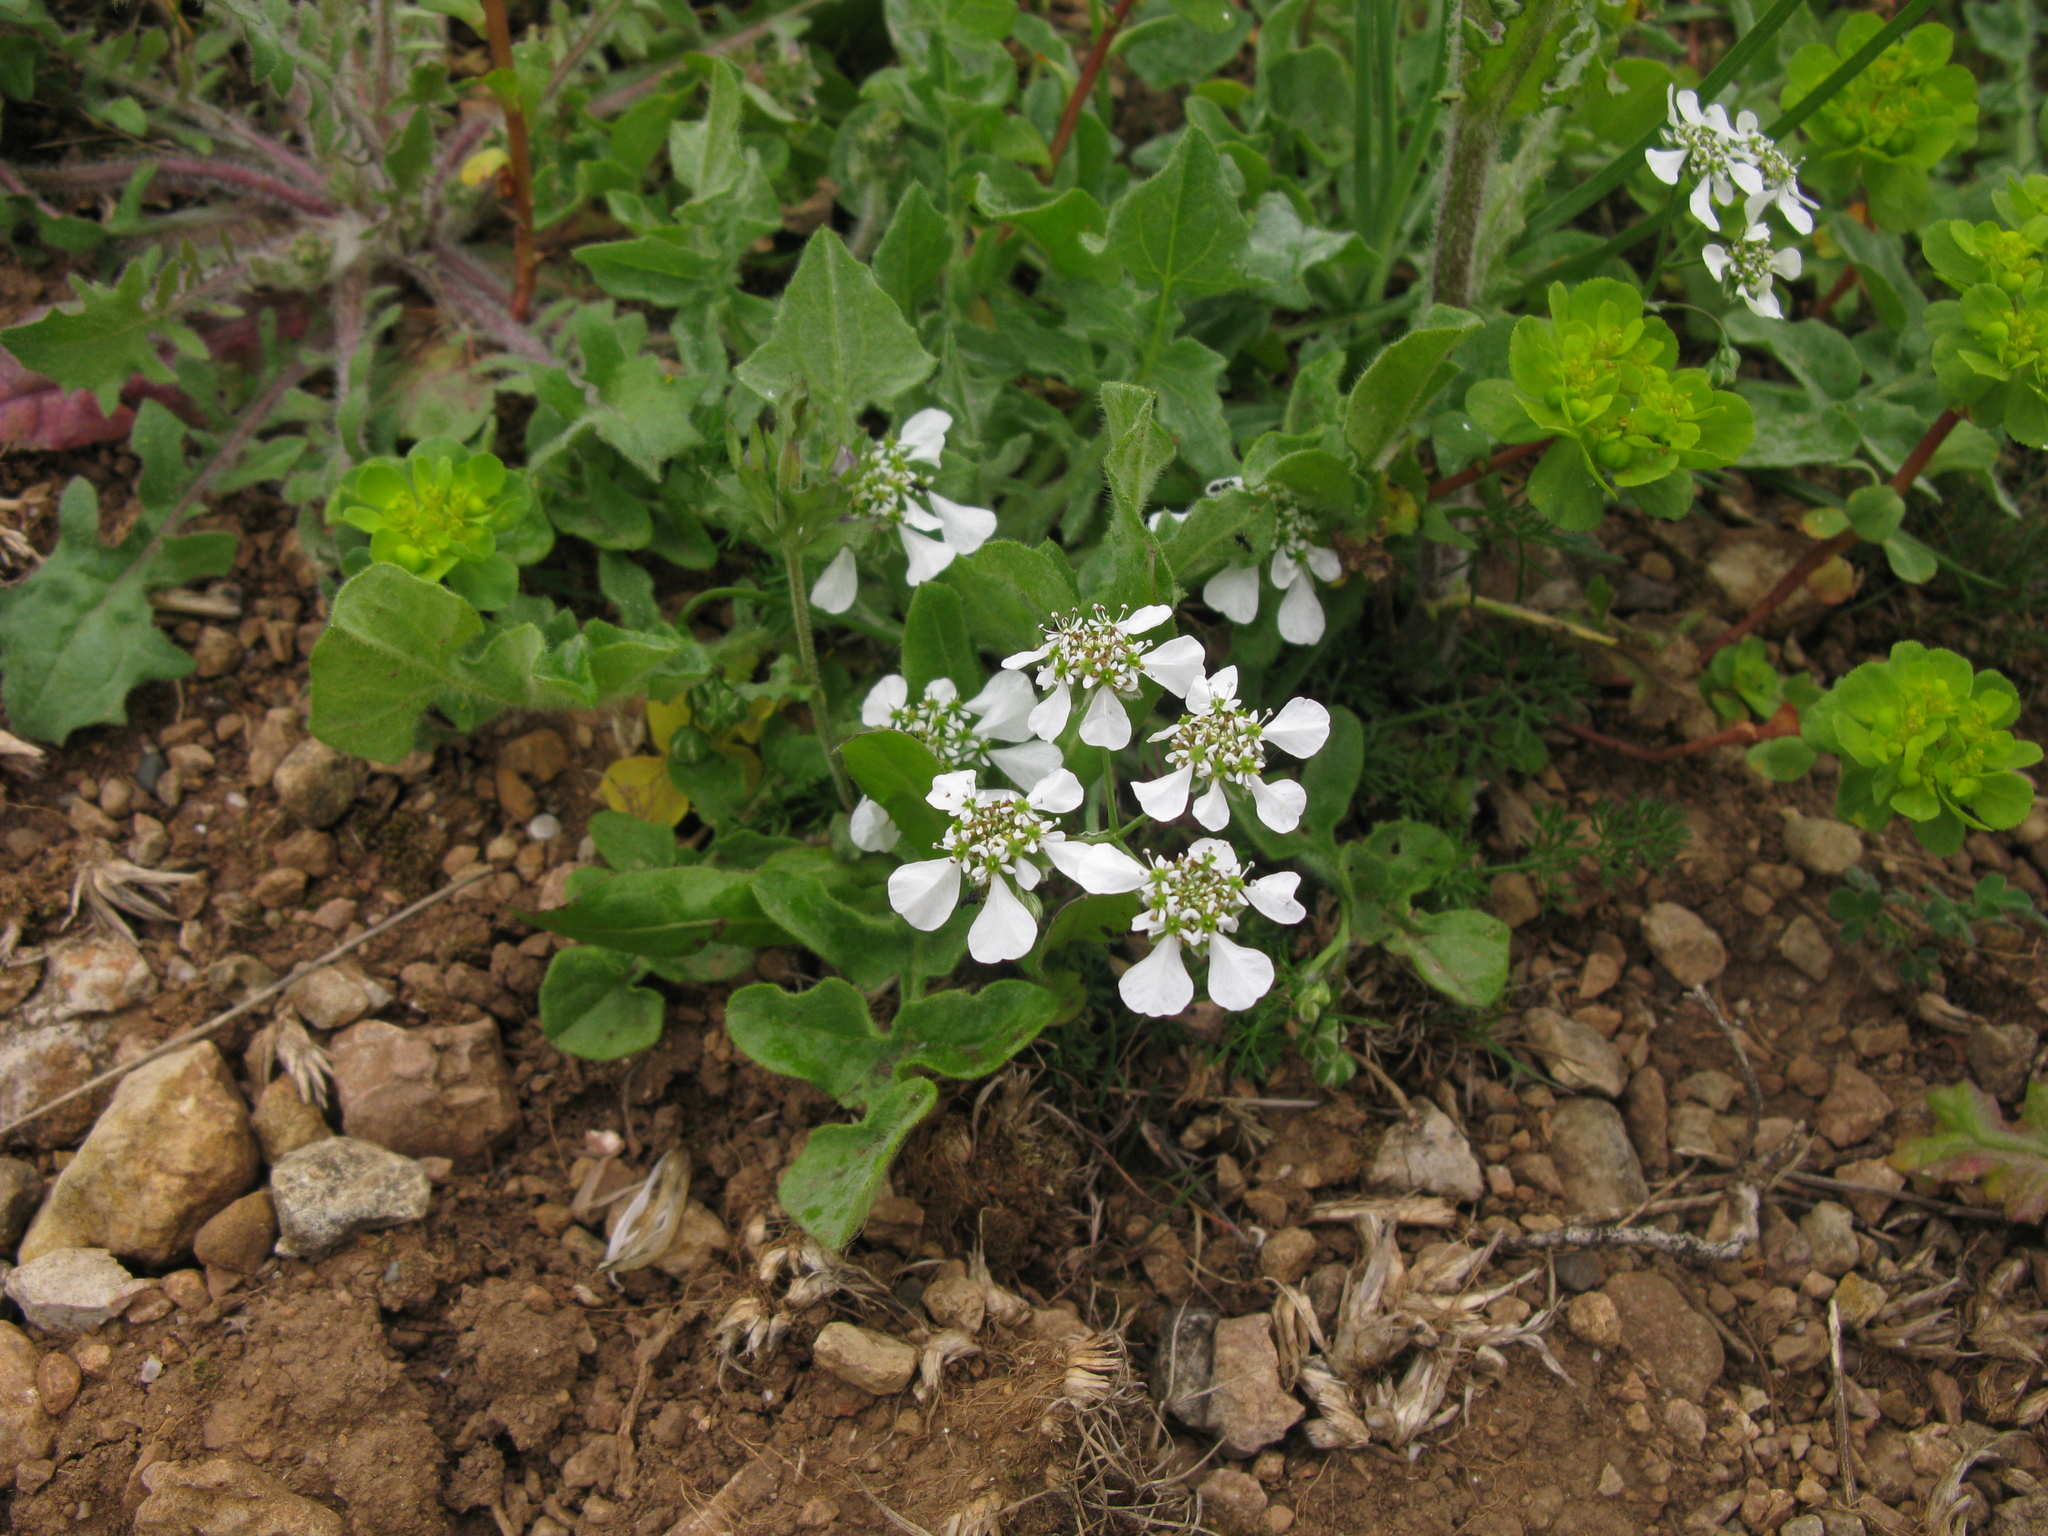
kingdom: Plantae
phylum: Tracheophyta
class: Magnoliopsida
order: Malpighiales
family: Euphorbiaceae
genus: Euphorbia
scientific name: Euphorbia helioscopia
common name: Sun spurge
